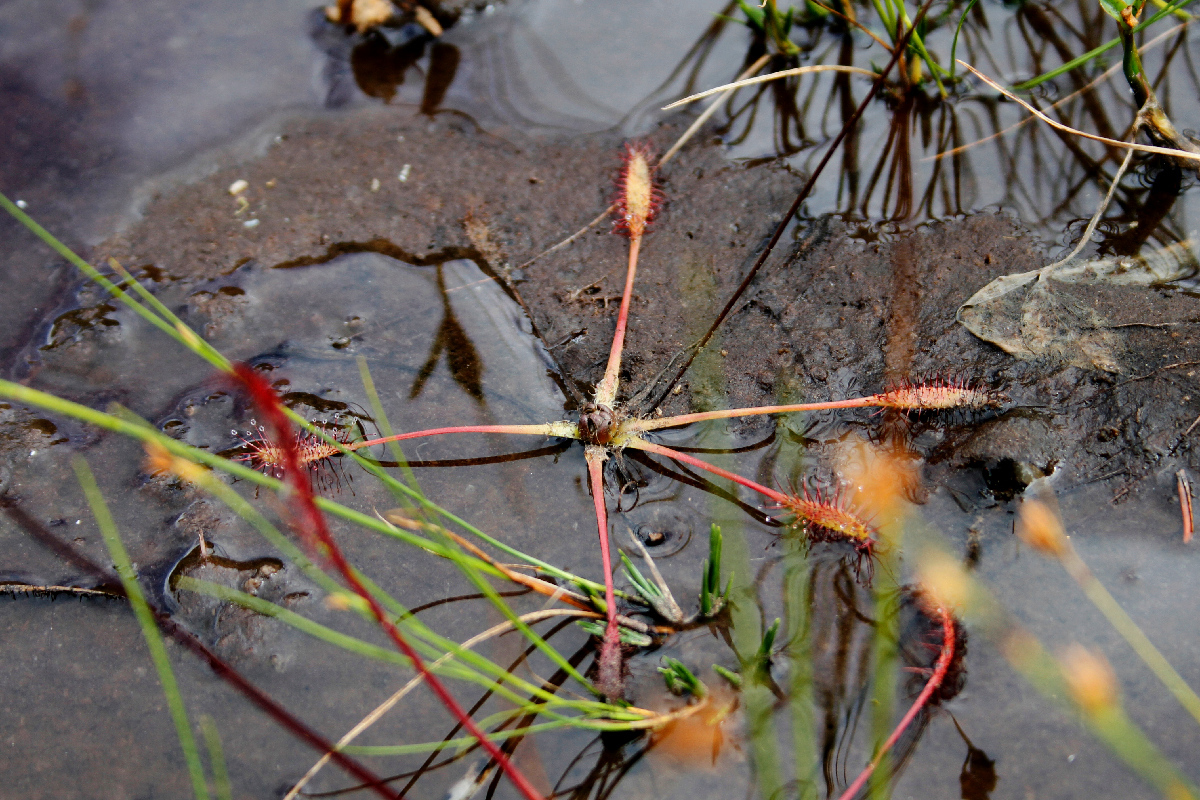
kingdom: Plantae
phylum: Tracheophyta
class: Magnoliopsida
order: Caryophyllales
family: Droseraceae
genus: Drosera
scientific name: Drosera anglica
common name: Great sundew
